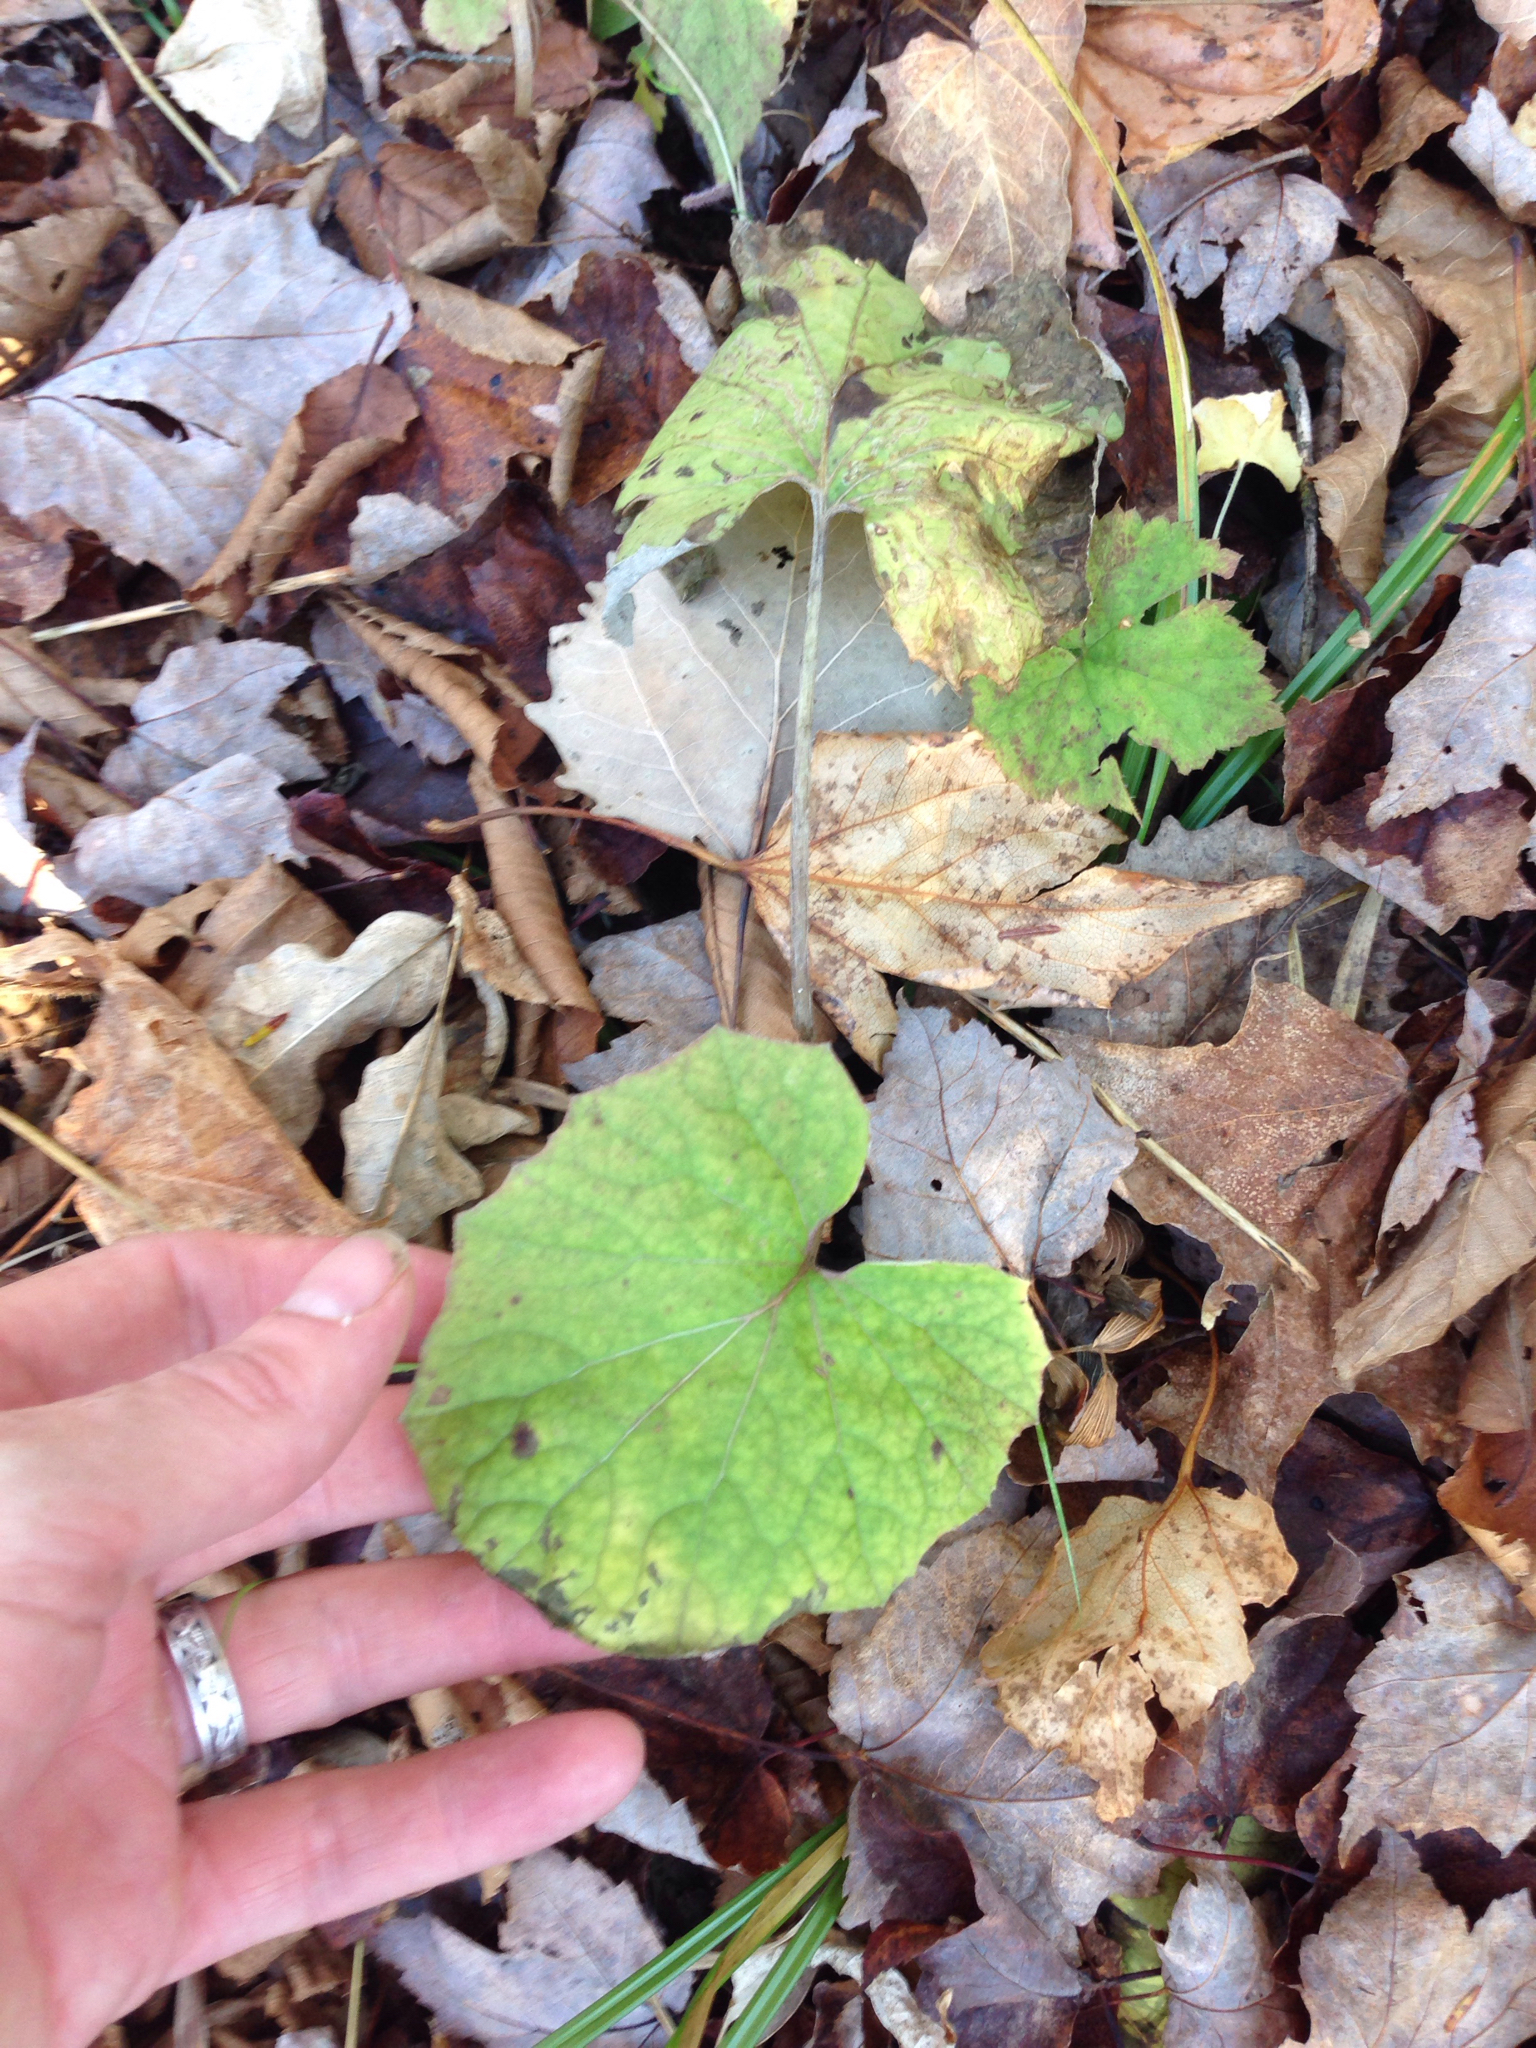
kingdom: Plantae
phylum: Tracheophyta
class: Magnoliopsida
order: Asterales
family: Asteraceae
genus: Tussilago
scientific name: Tussilago farfara
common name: Coltsfoot
